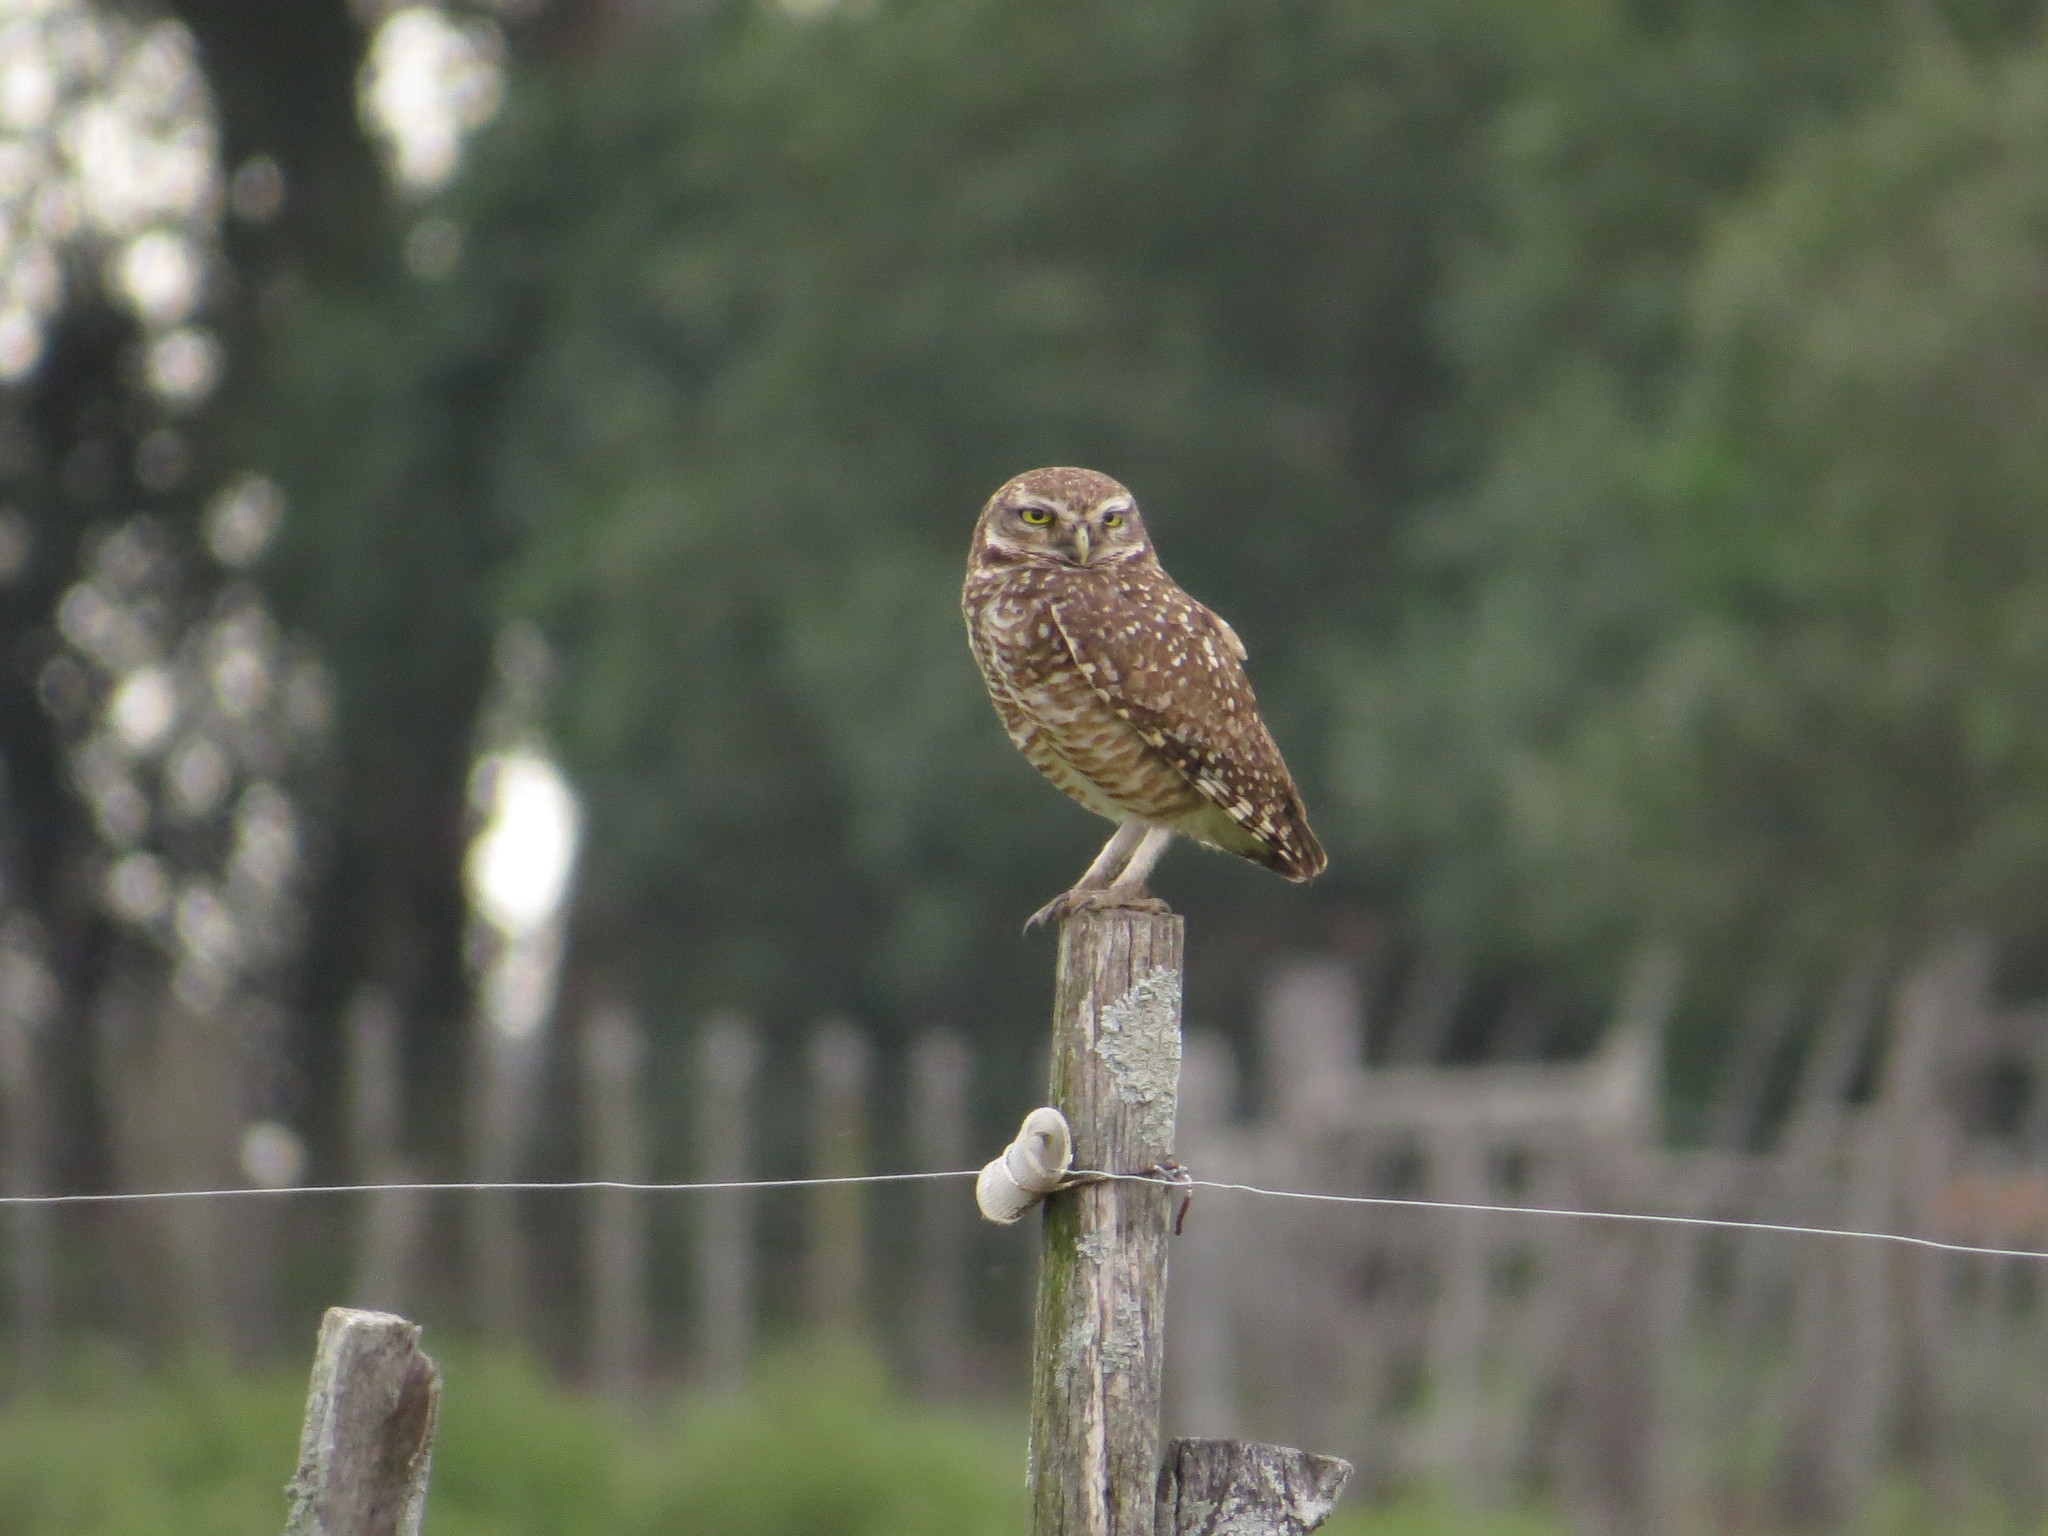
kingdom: Animalia
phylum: Chordata
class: Aves
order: Strigiformes
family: Strigidae
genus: Athene
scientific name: Athene cunicularia
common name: Burrowing owl
